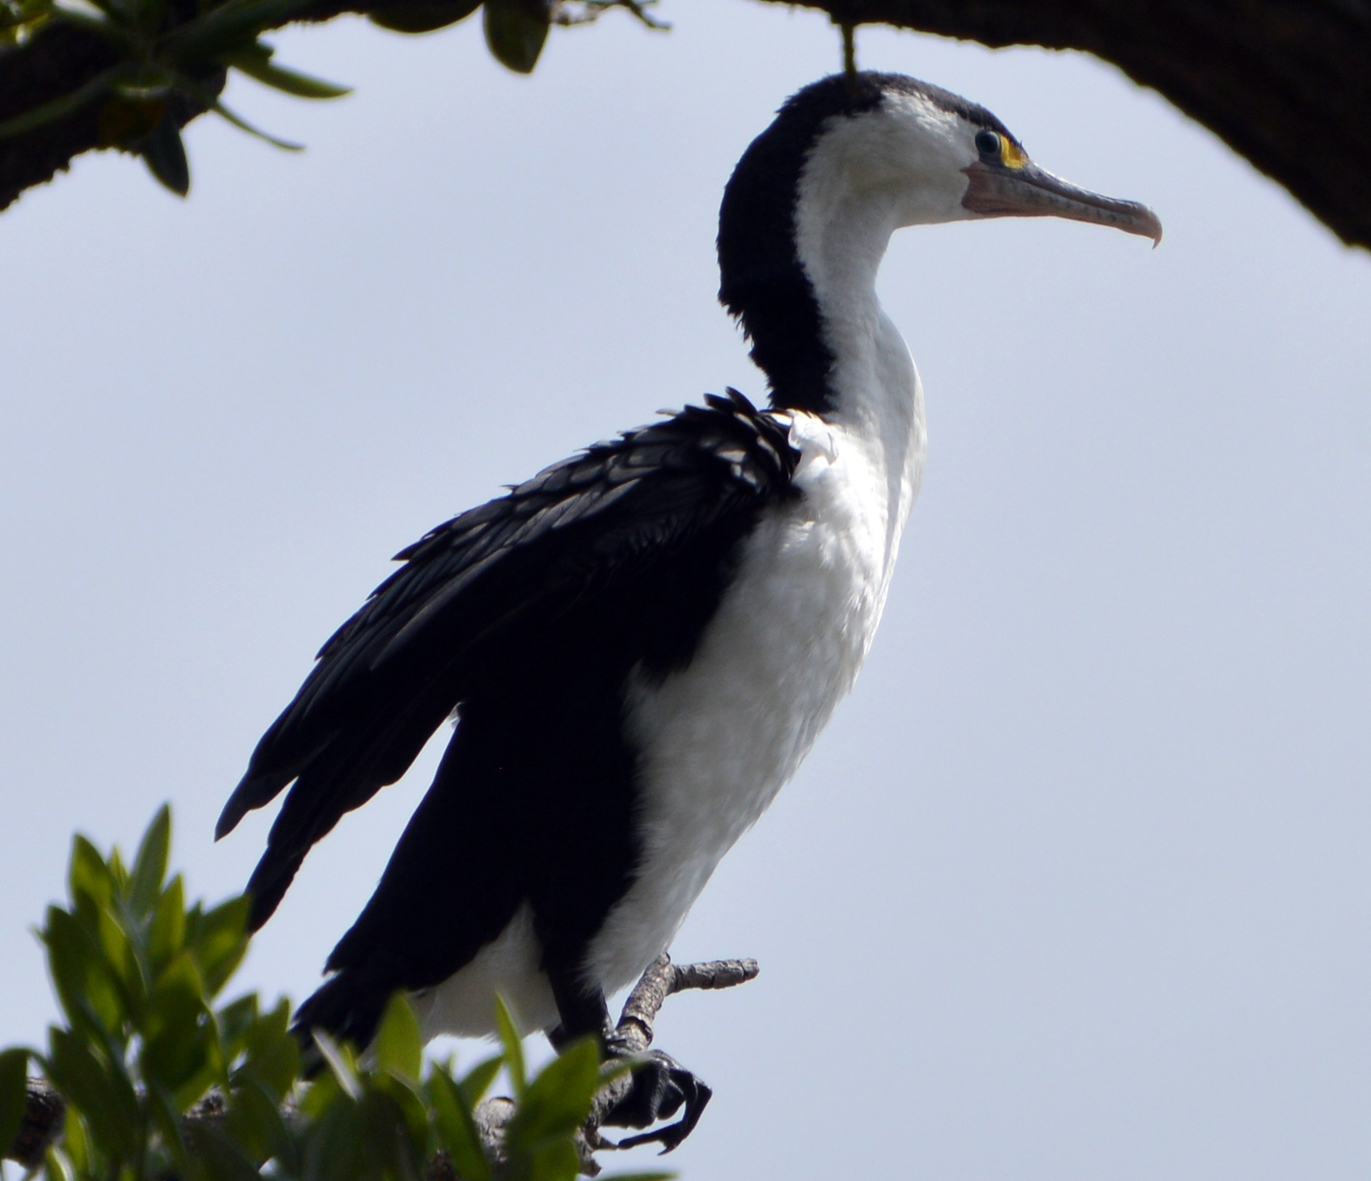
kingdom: Animalia
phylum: Chordata
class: Aves
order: Suliformes
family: Phalacrocoracidae
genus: Phalacrocorax
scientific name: Phalacrocorax varius
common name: Pied cormorant
